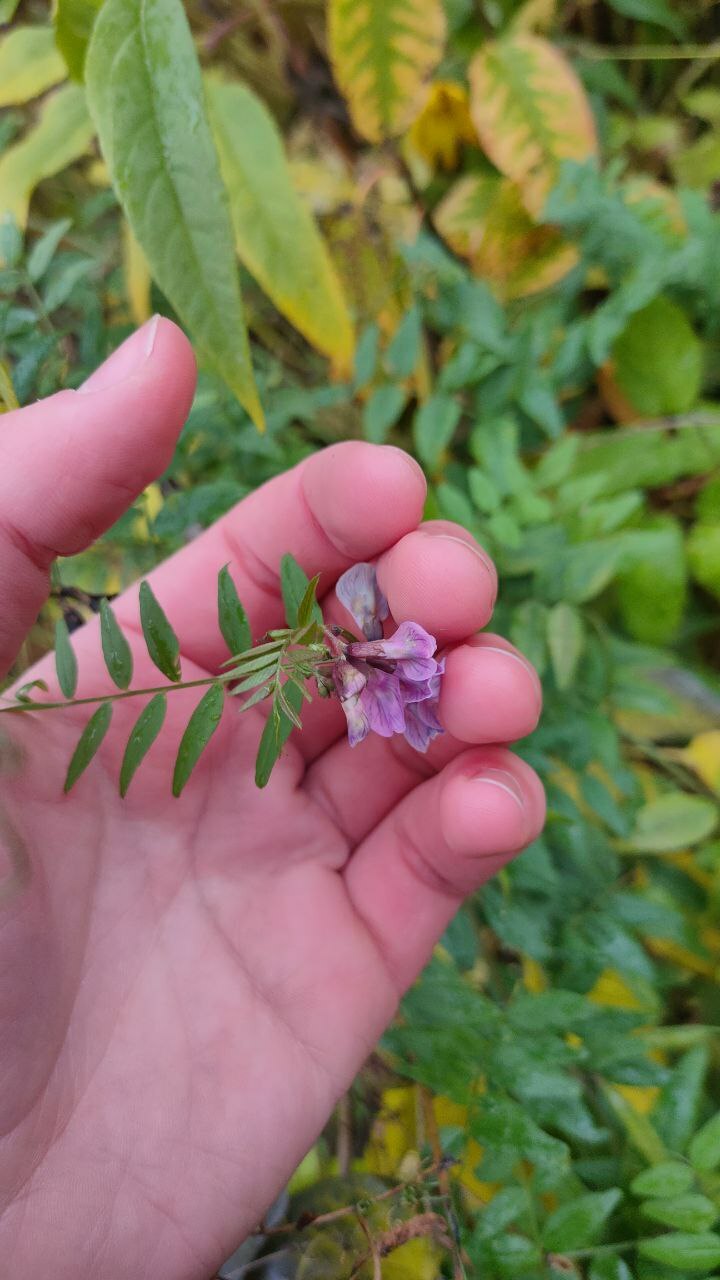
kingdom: Plantae
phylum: Tracheophyta
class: Magnoliopsida
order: Fabales
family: Fabaceae
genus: Vicia
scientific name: Vicia sepium
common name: Bush vetch
